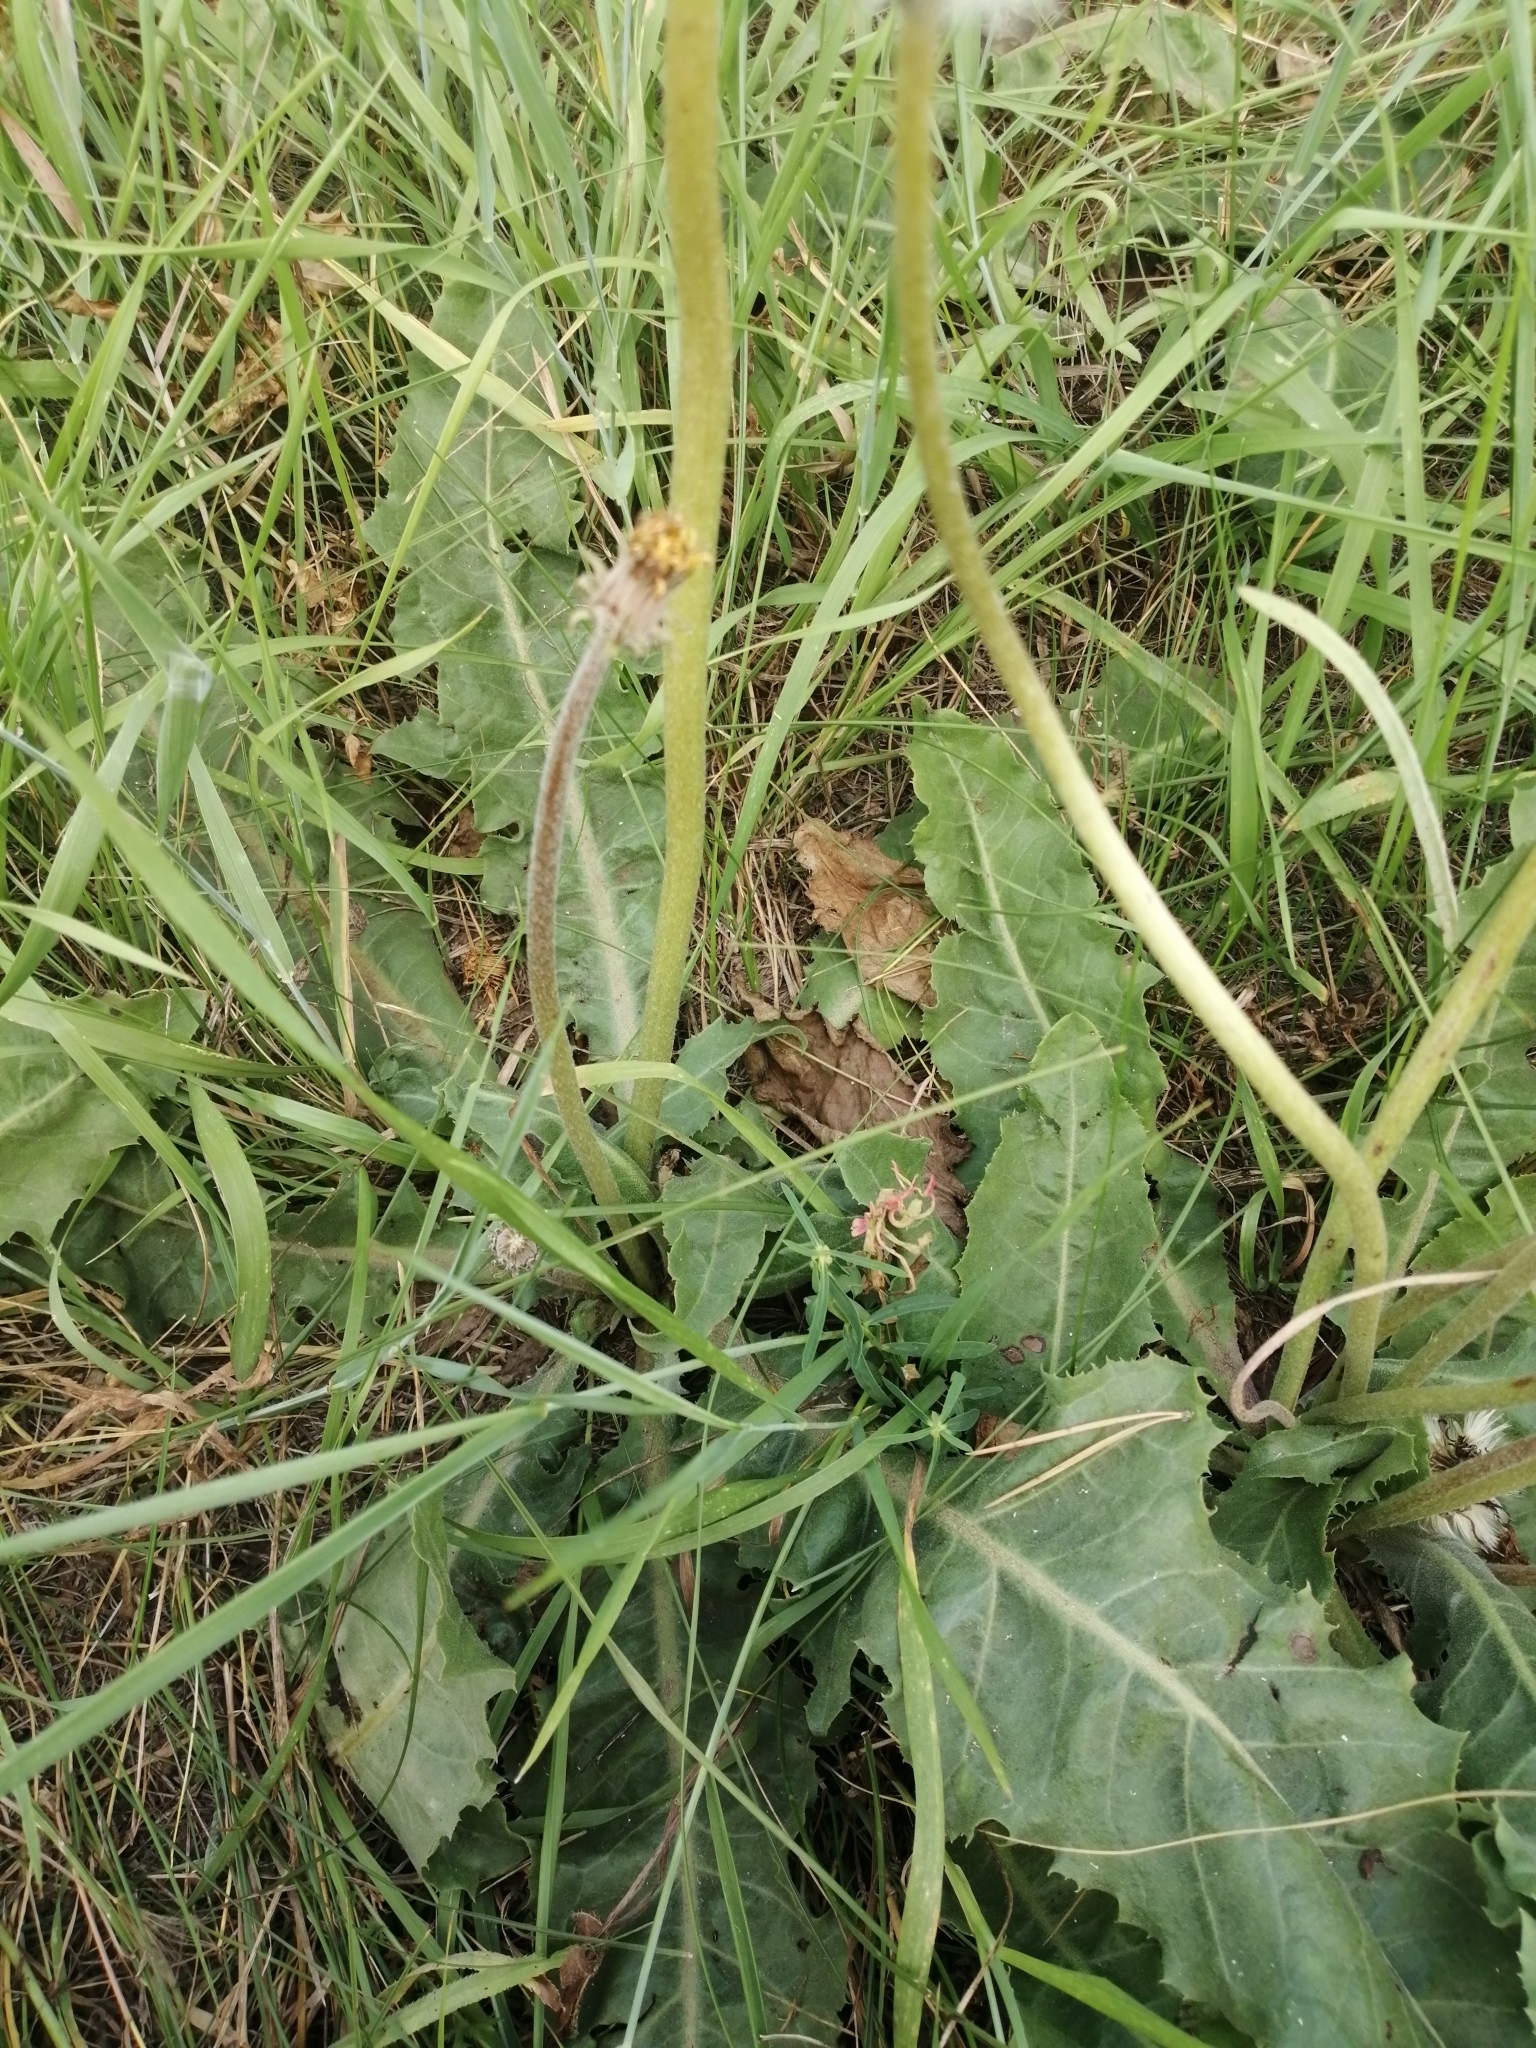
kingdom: Plantae
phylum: Tracheophyta
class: Magnoliopsida
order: Asterales
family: Asteraceae
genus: Taraxacum
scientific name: Taraxacum serotinum
